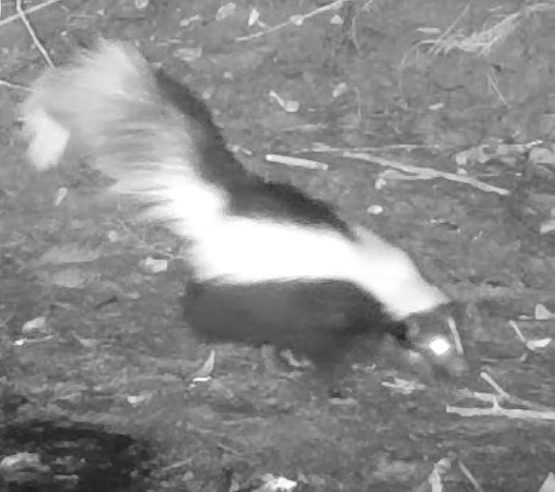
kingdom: Animalia
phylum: Chordata
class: Mammalia
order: Carnivora
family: Mephitidae
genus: Mephitis
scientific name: Mephitis mephitis
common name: Striped skunk
